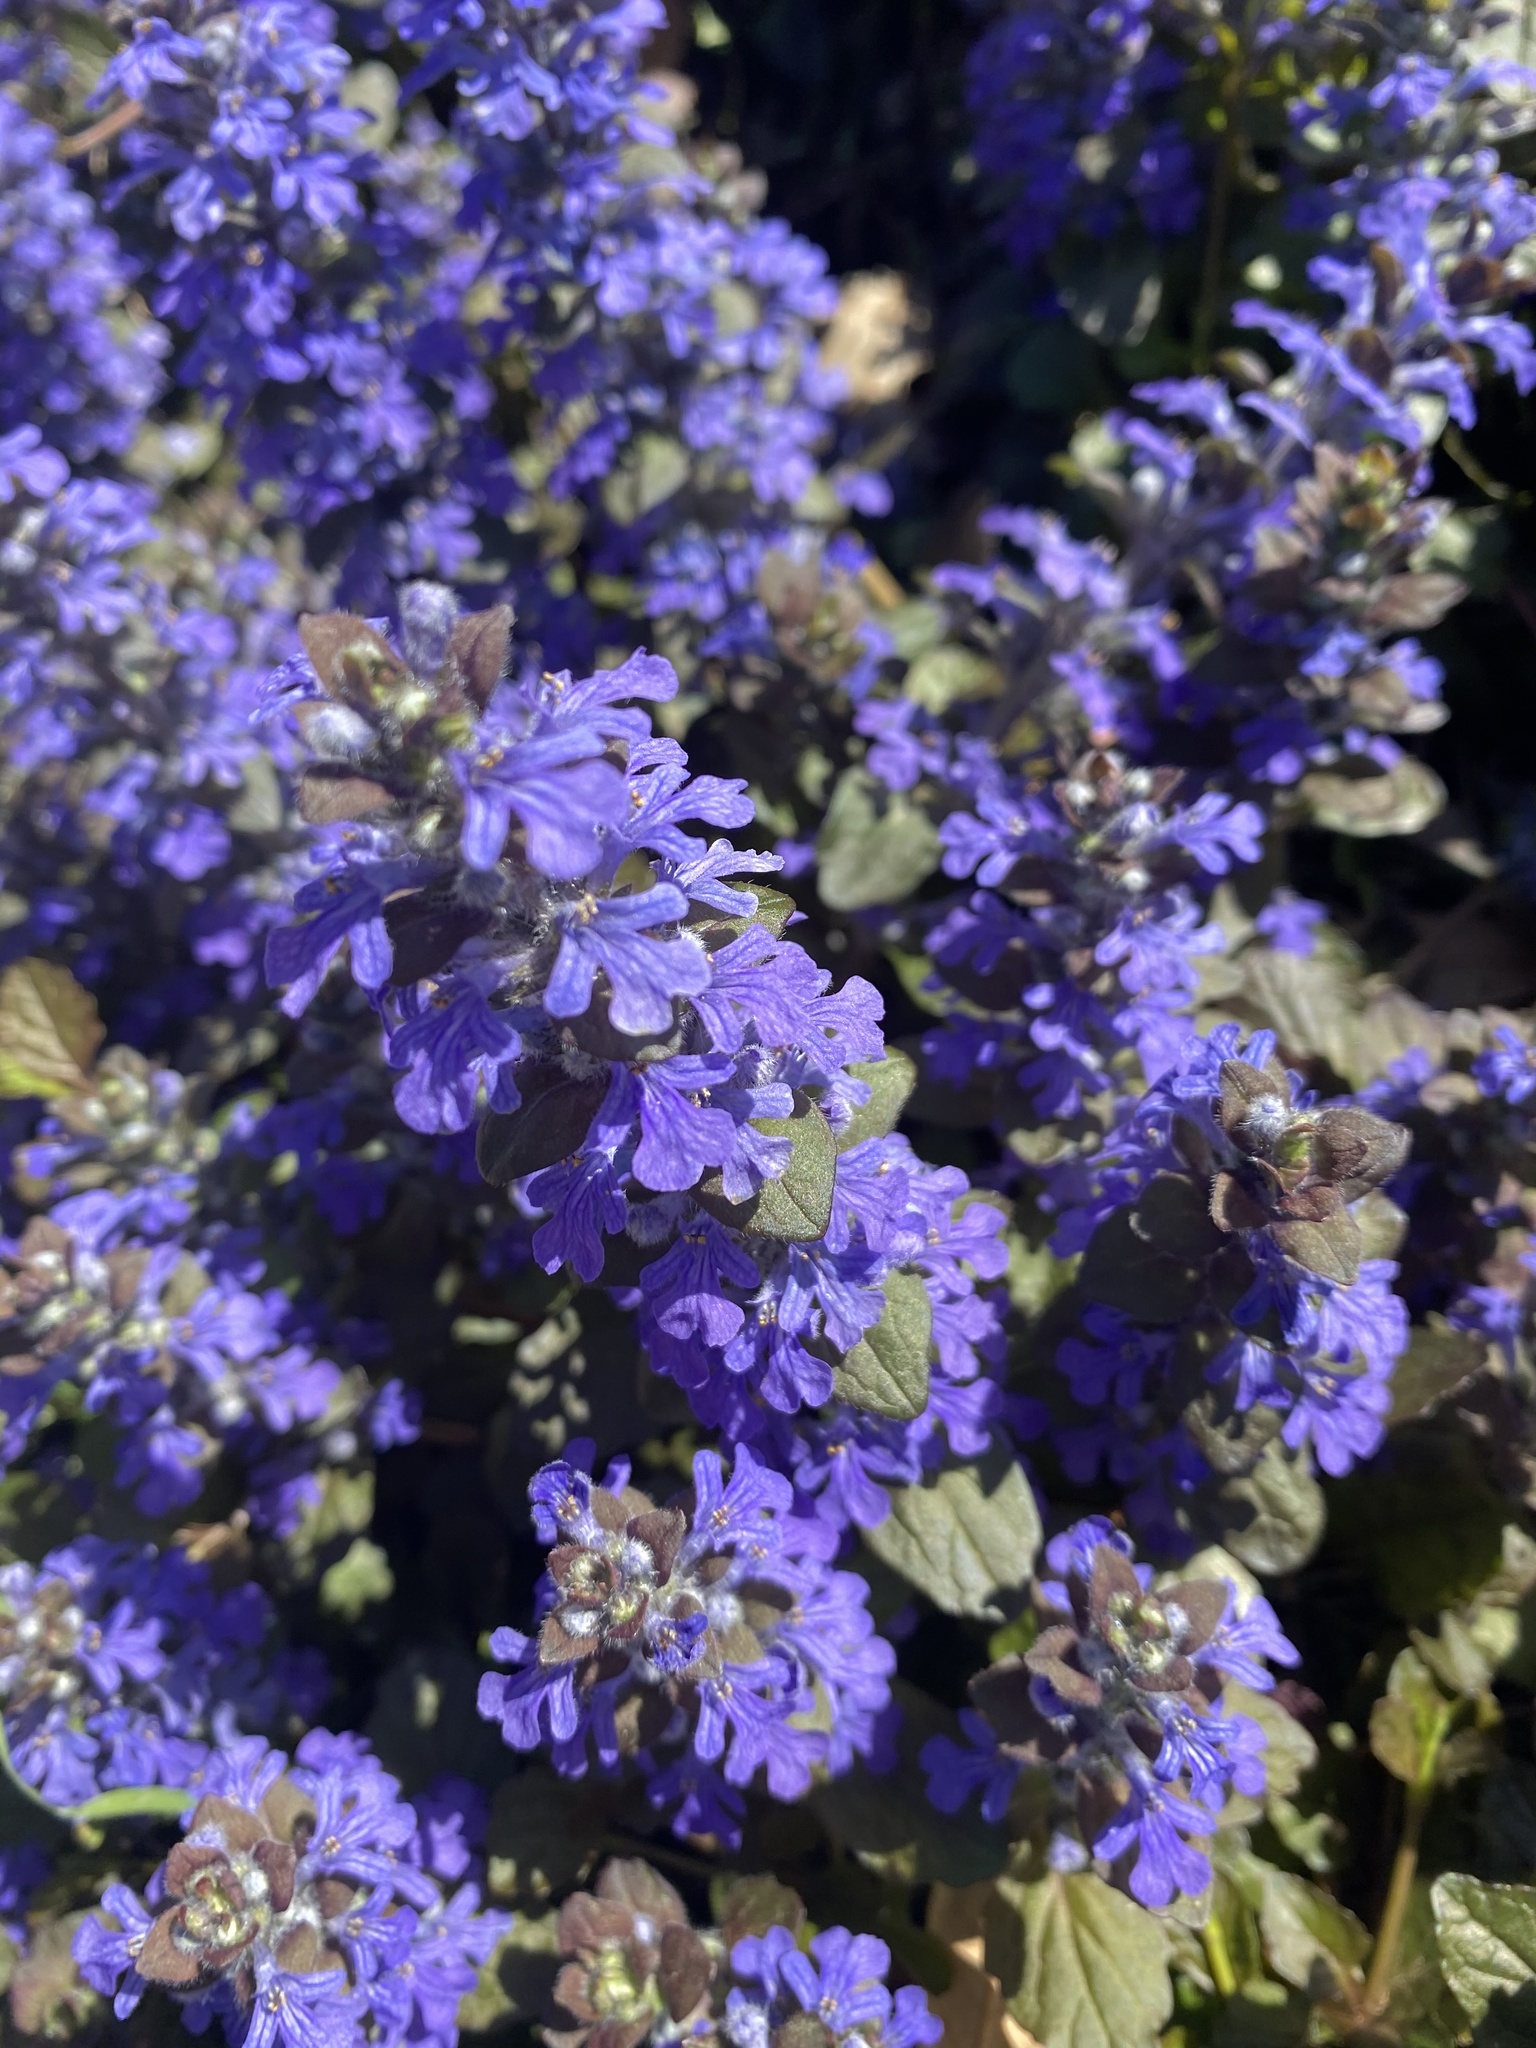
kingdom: Plantae
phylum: Tracheophyta
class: Magnoliopsida
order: Lamiales
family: Lamiaceae
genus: Ajuga
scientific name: Ajuga reptans
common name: Bugle
